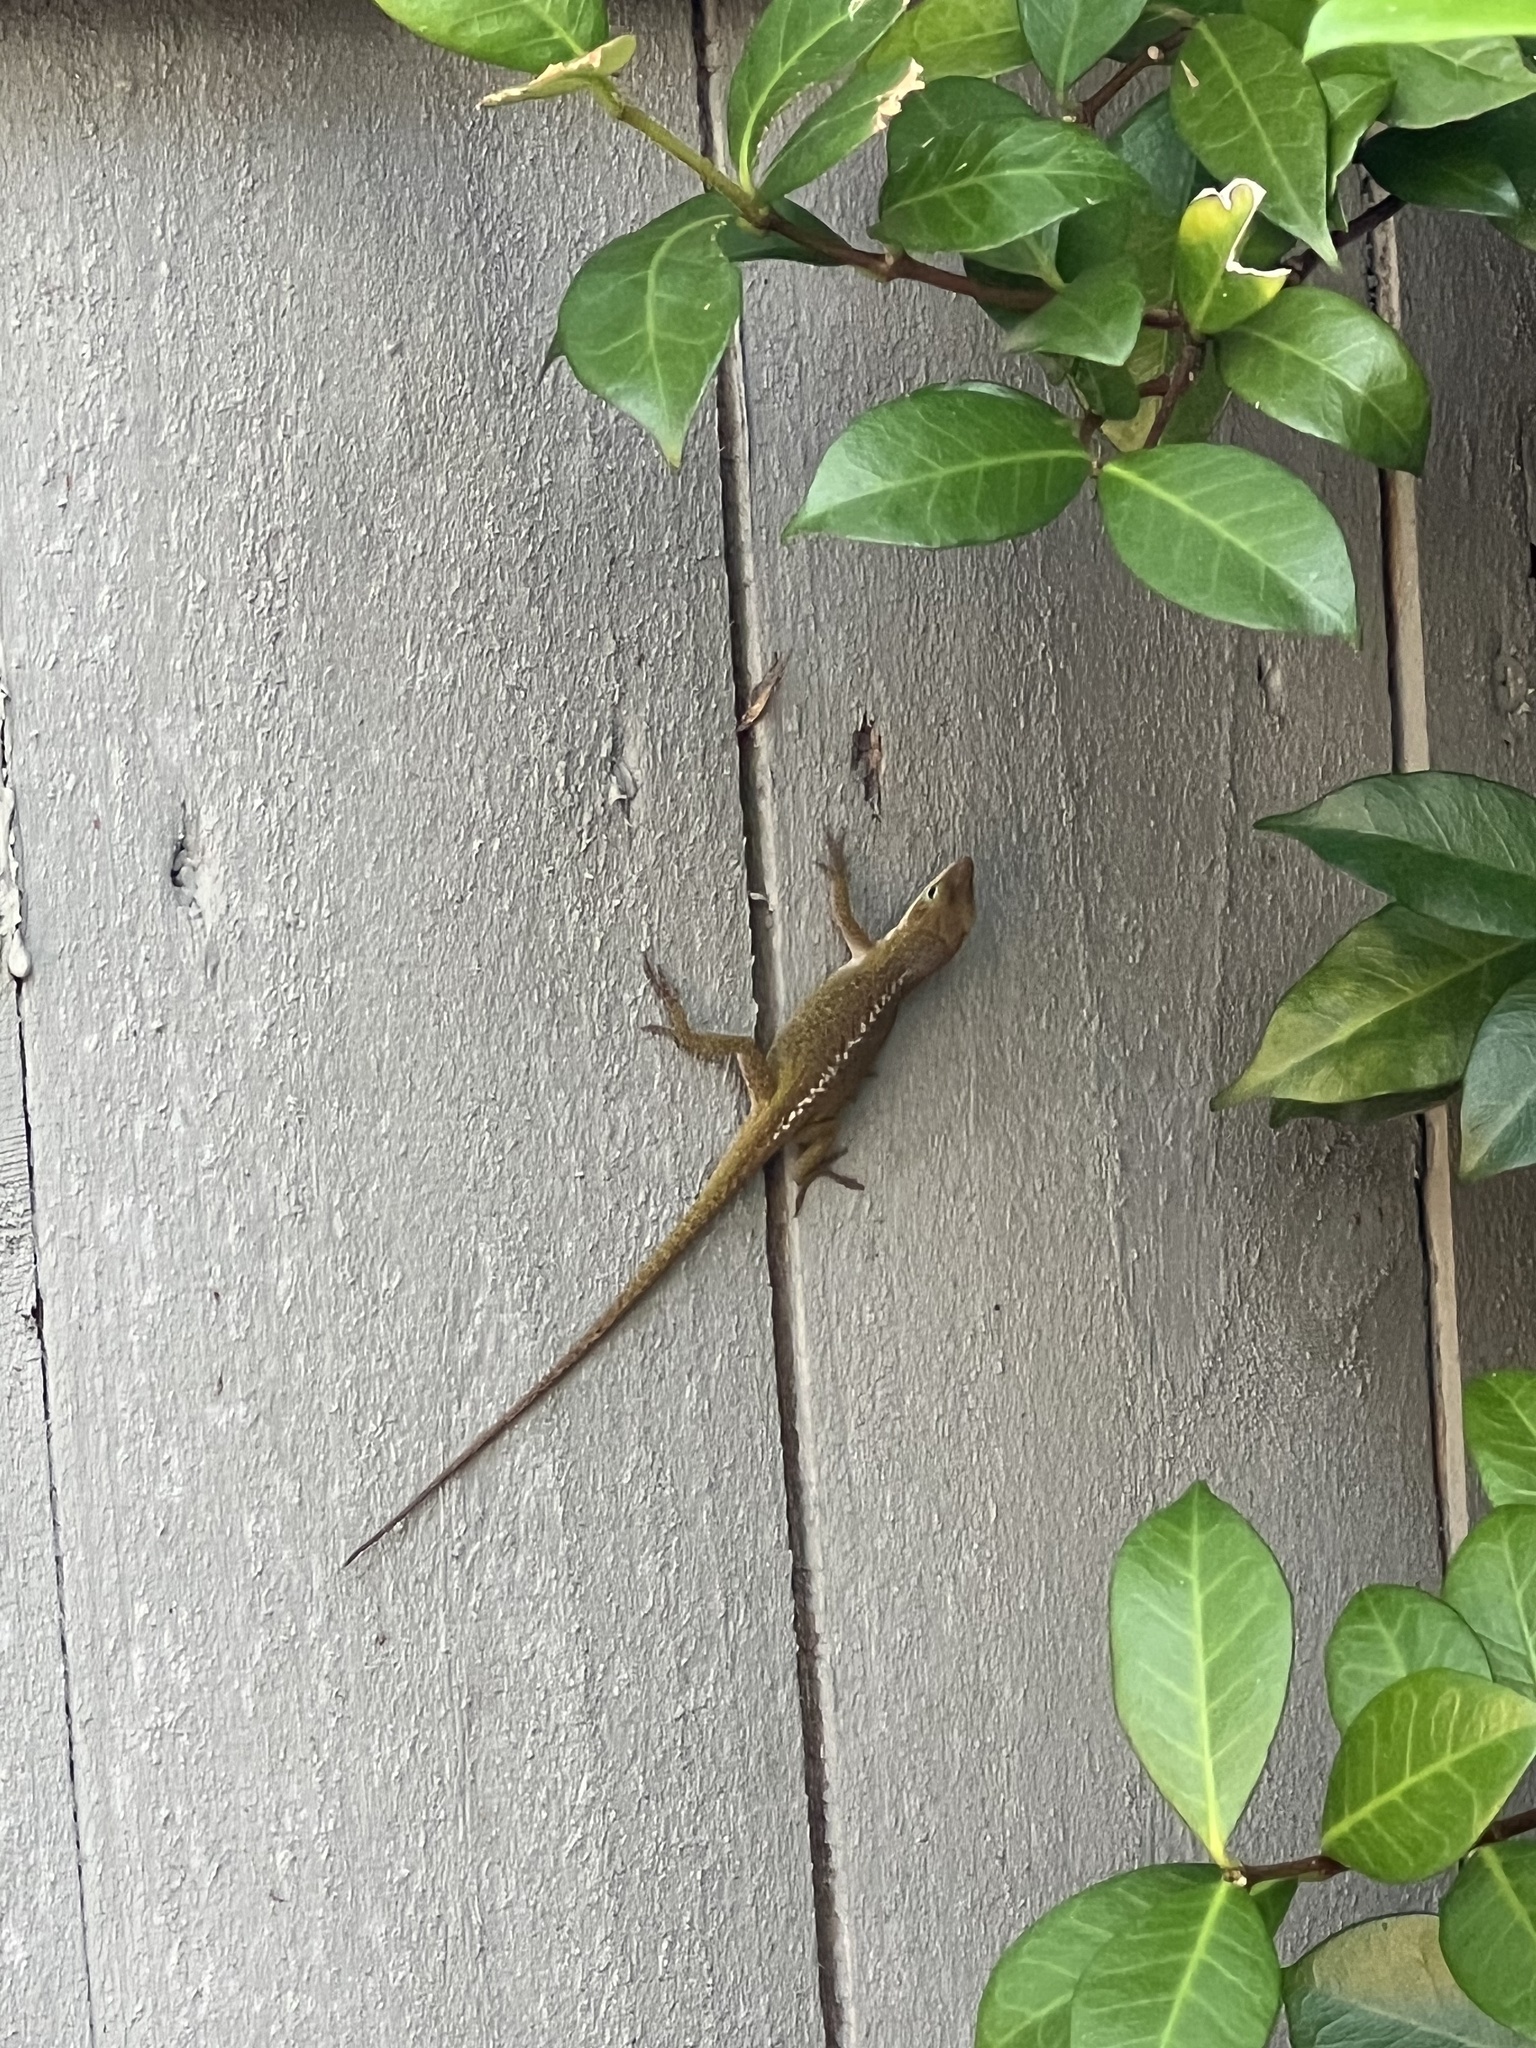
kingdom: Animalia
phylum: Chordata
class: Squamata
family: Dactyloidae
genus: Anolis
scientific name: Anolis carolinensis
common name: Green anole
